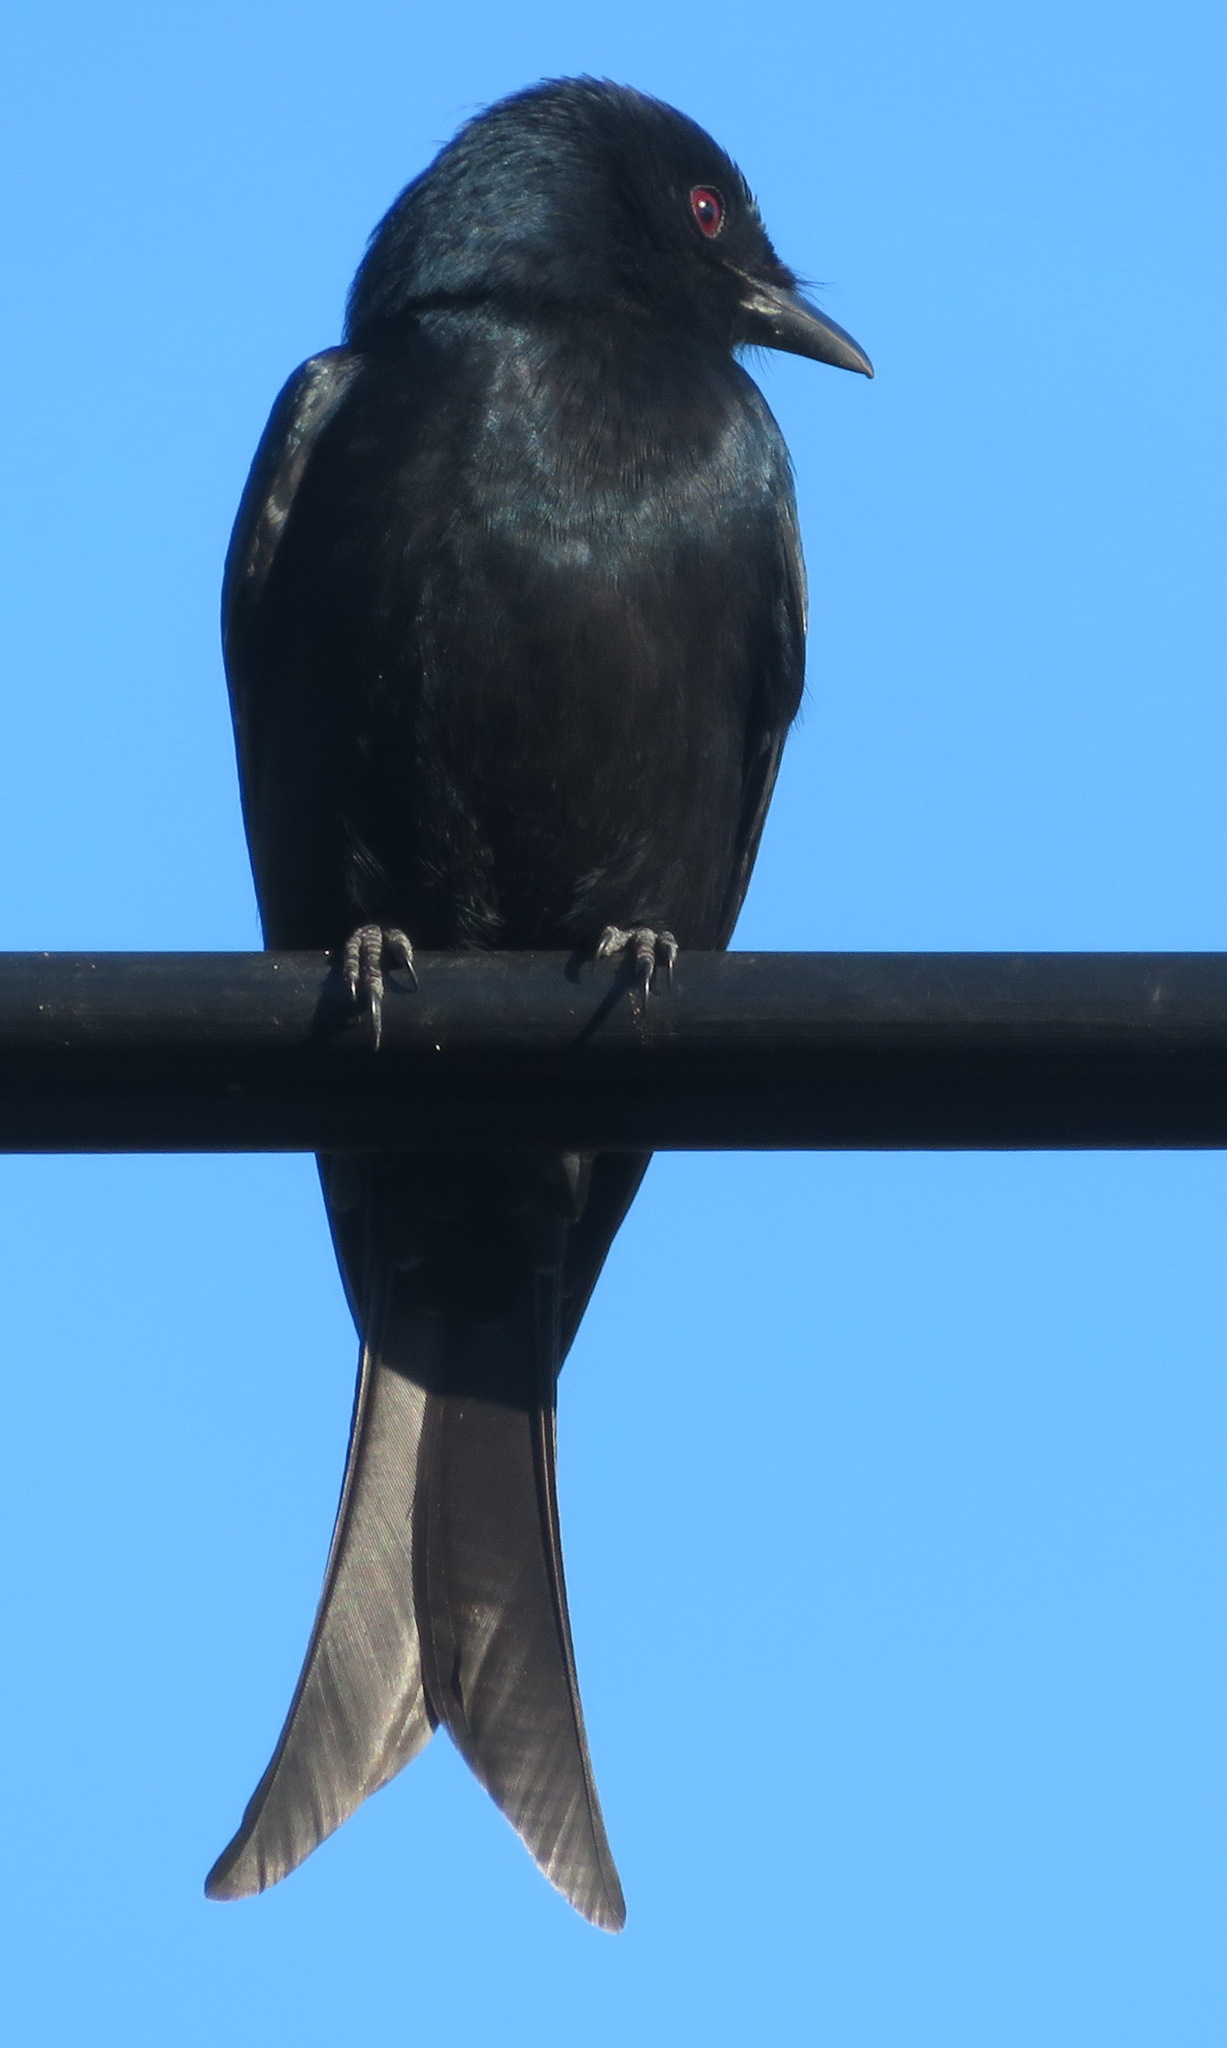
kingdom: Animalia
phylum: Chordata
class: Aves
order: Passeriformes
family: Dicruridae
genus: Dicrurus
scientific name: Dicrurus adsimilis
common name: Fork-tailed drongo
